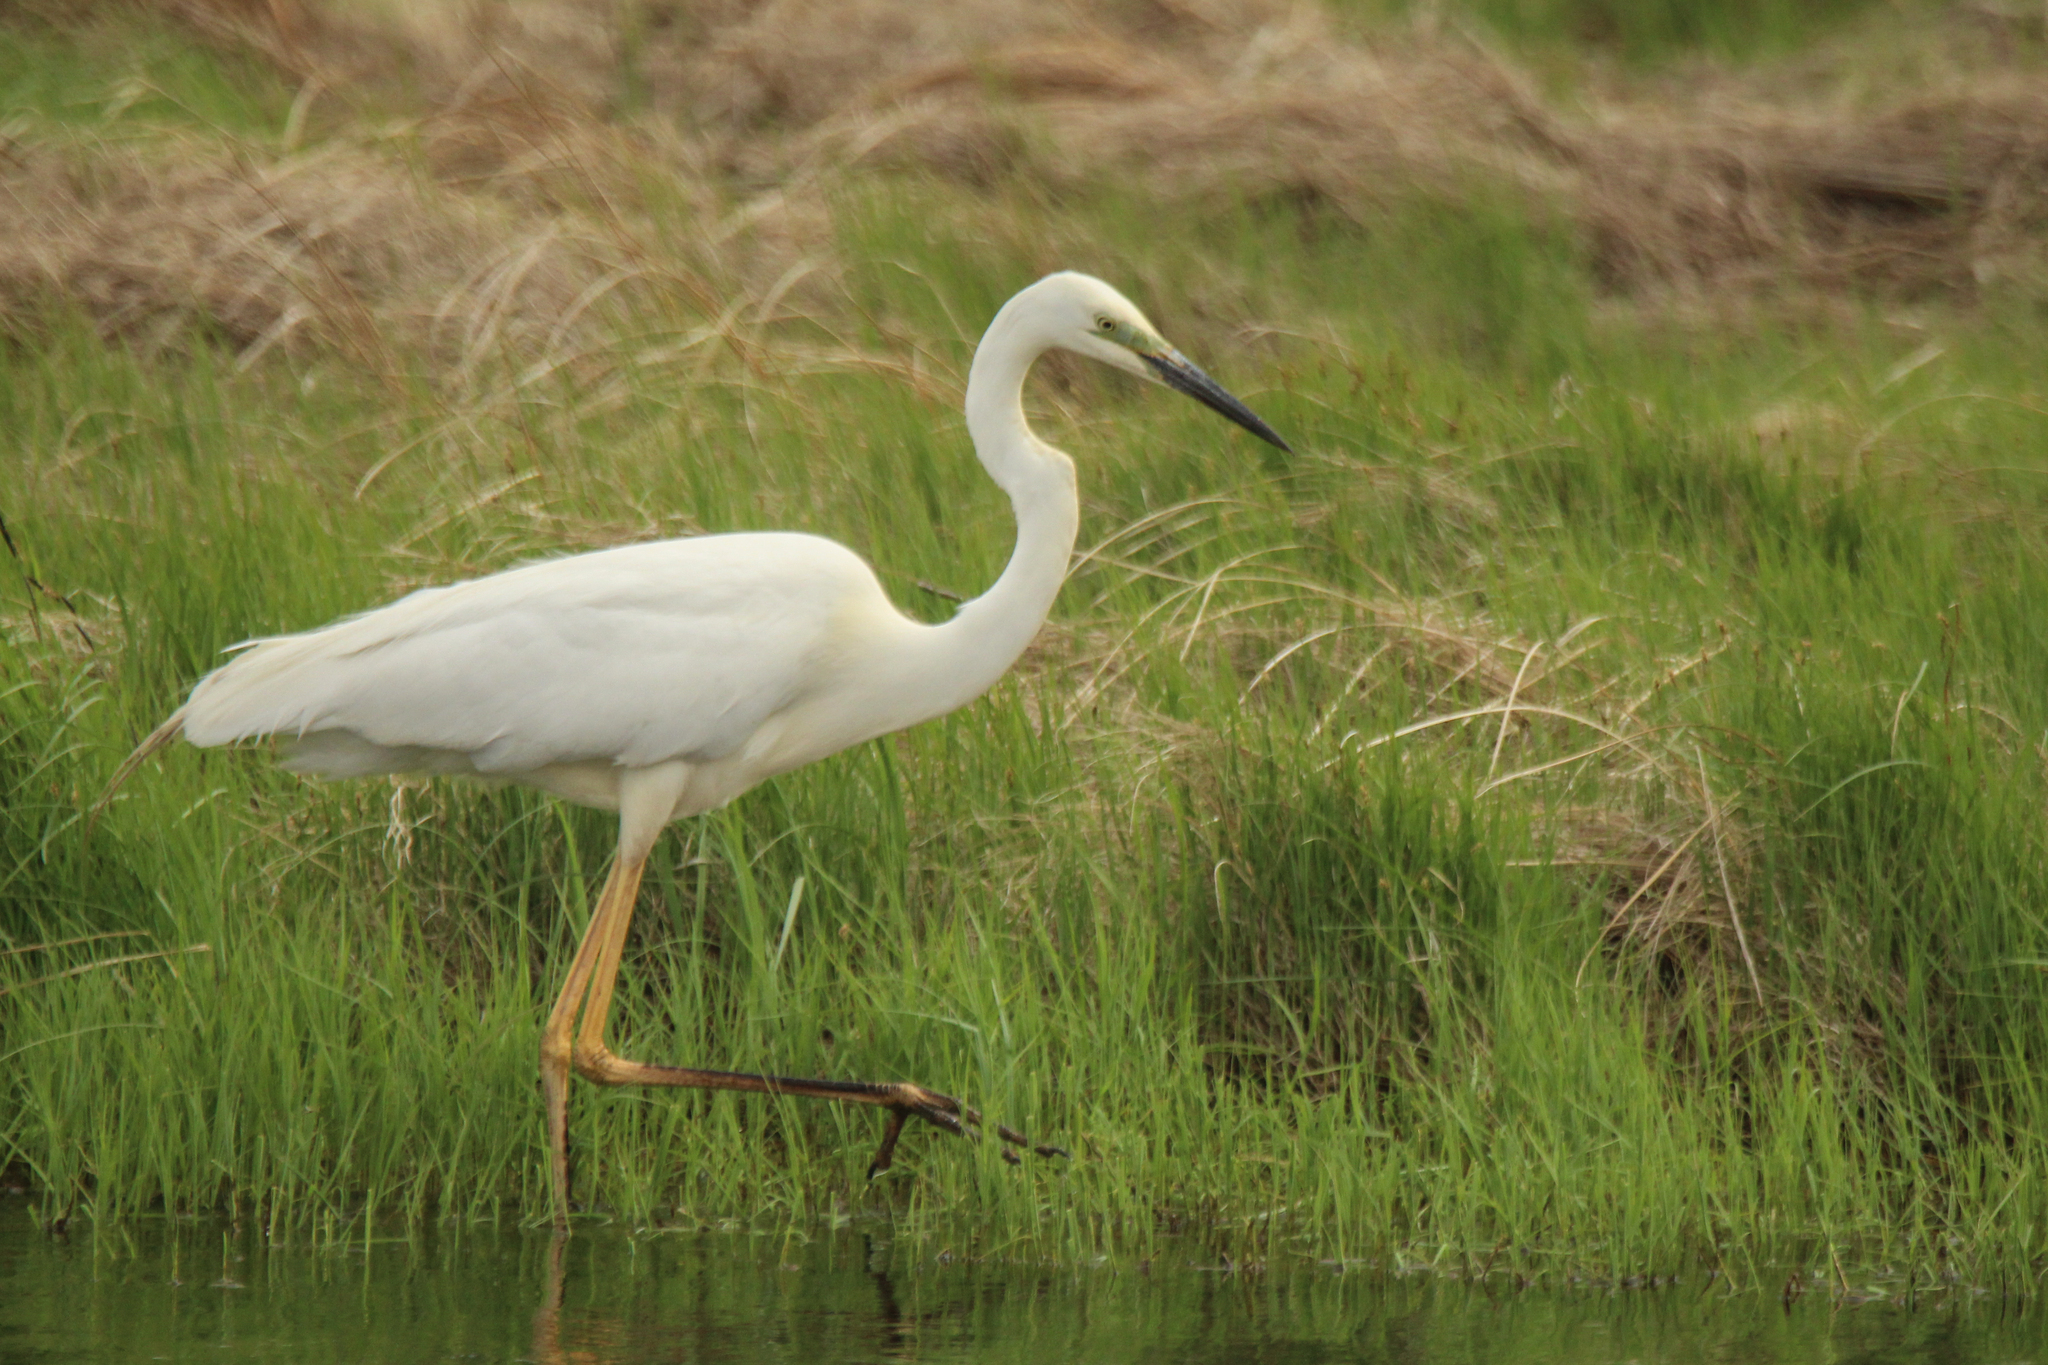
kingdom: Animalia
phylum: Chordata
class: Aves
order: Pelecaniformes
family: Ardeidae
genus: Ardea
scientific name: Ardea alba
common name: Great egret
